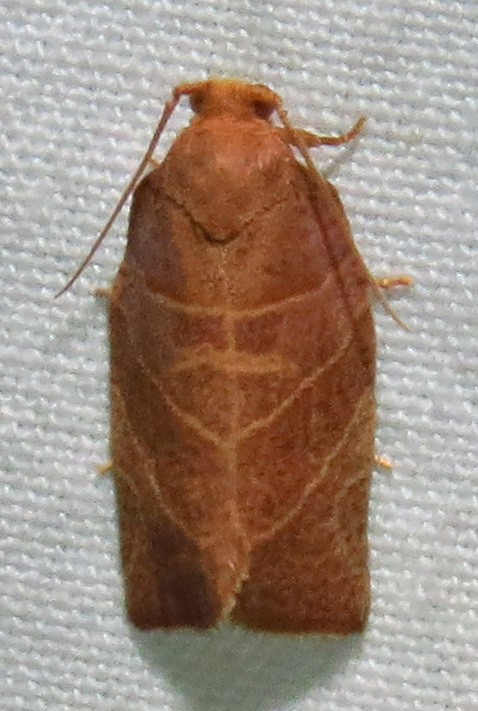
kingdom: Animalia
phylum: Arthropoda
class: Insecta
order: Lepidoptera
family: Tortricidae
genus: Pandemis
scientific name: Pandemis limitata
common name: Three-lined leafroller moth
